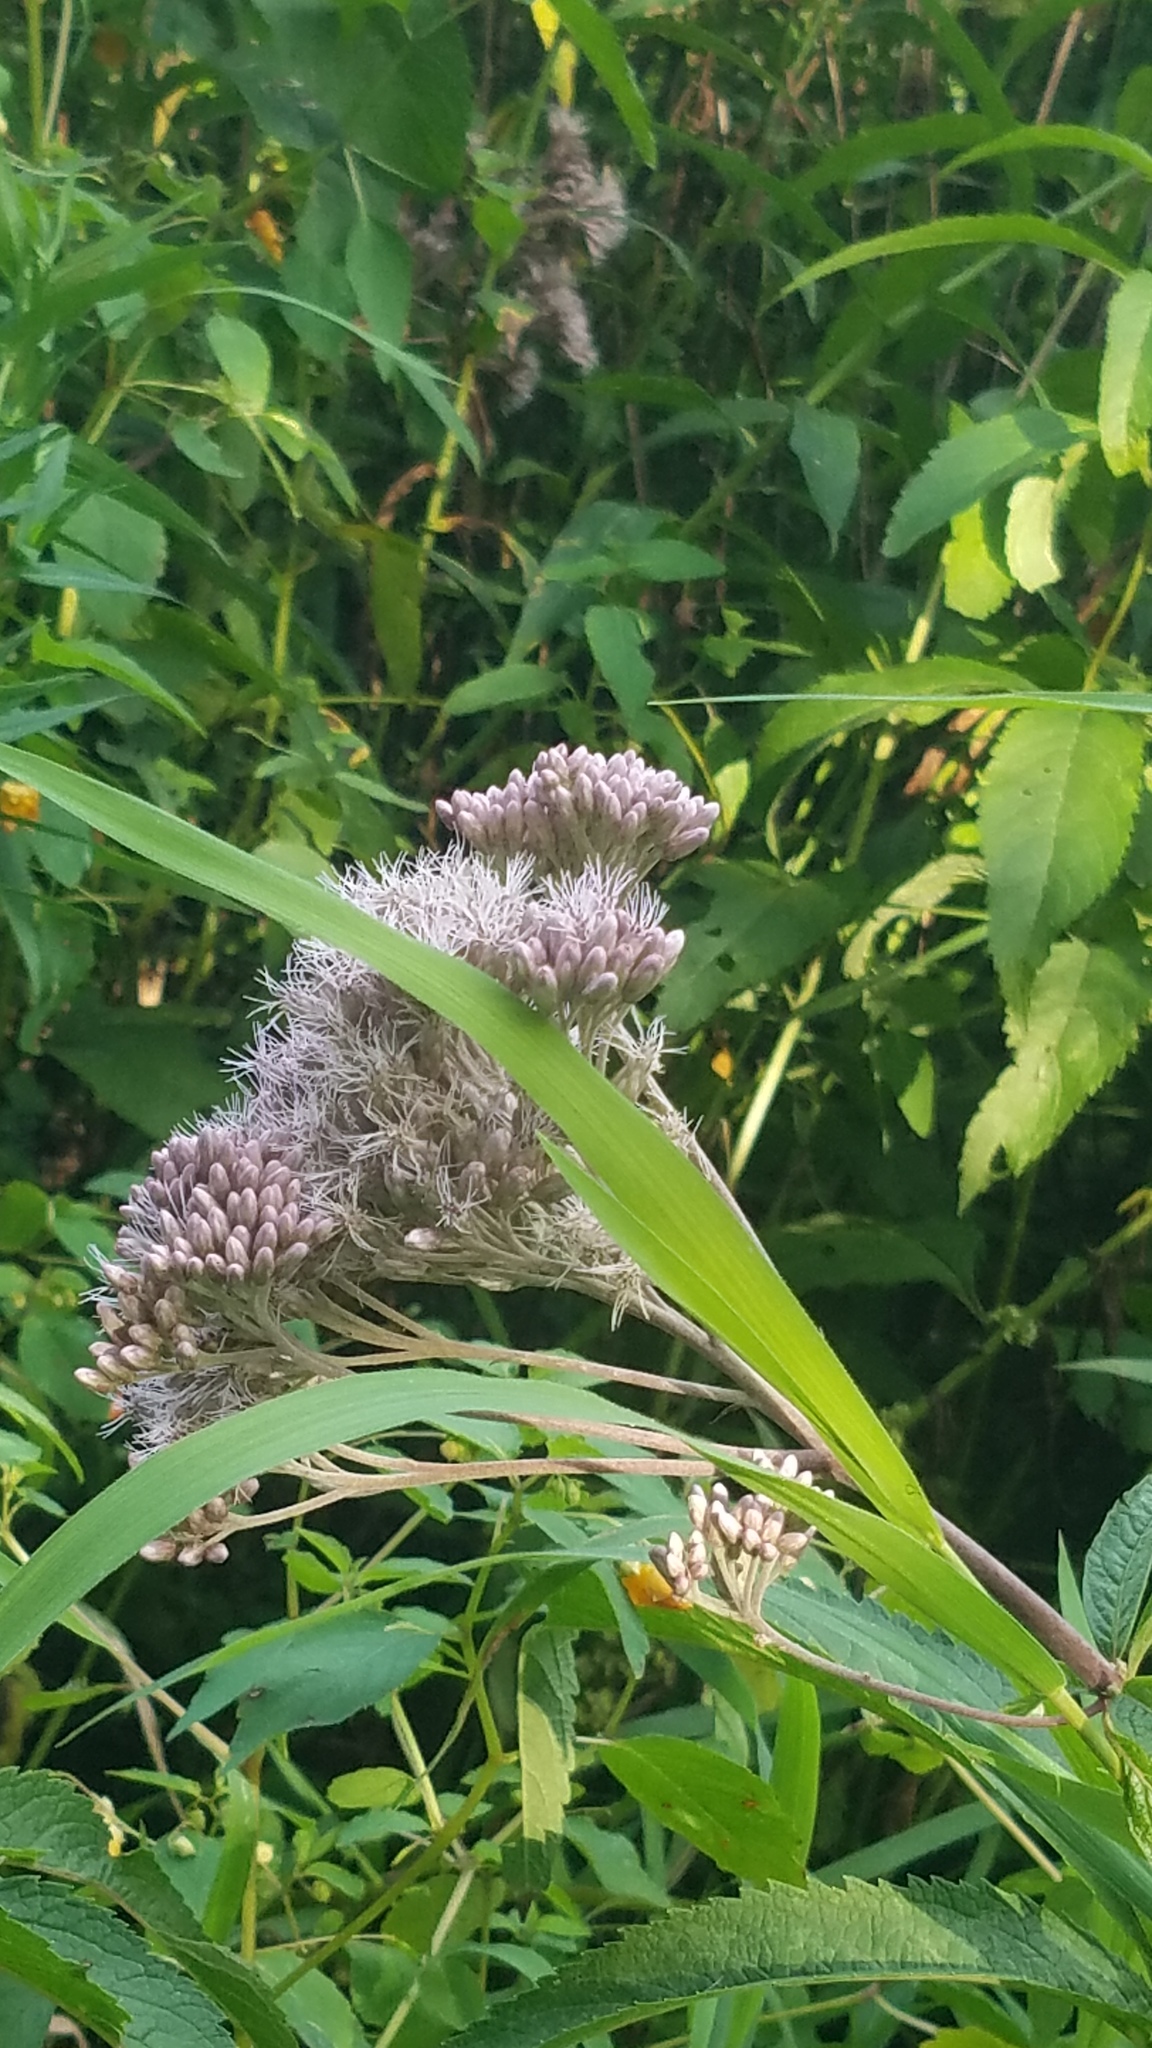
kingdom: Plantae
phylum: Tracheophyta
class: Magnoliopsida
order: Asterales
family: Asteraceae
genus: Eutrochium
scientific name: Eutrochium maculatum
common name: Spotted joe pye weed
